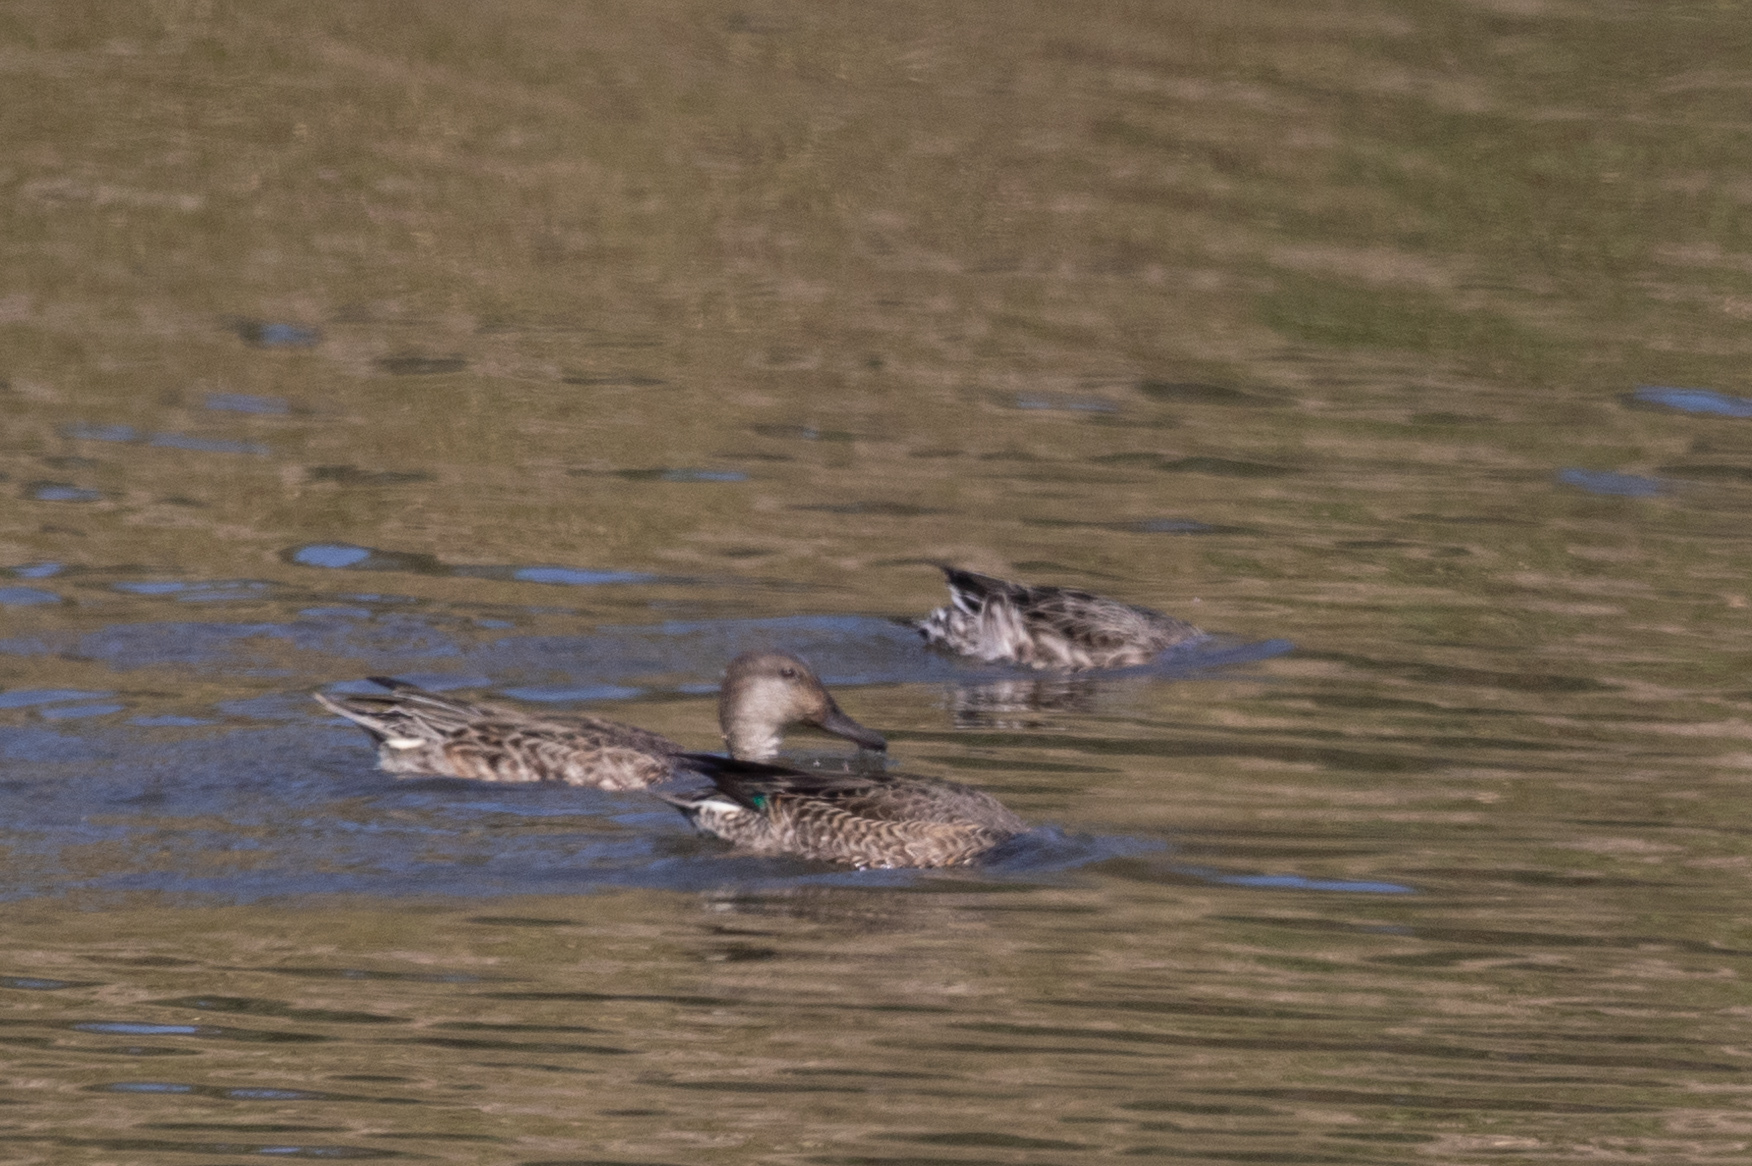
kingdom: Animalia
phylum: Chordata
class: Aves
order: Anseriformes
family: Anatidae
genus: Anas
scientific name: Anas crecca
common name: Eurasian teal
